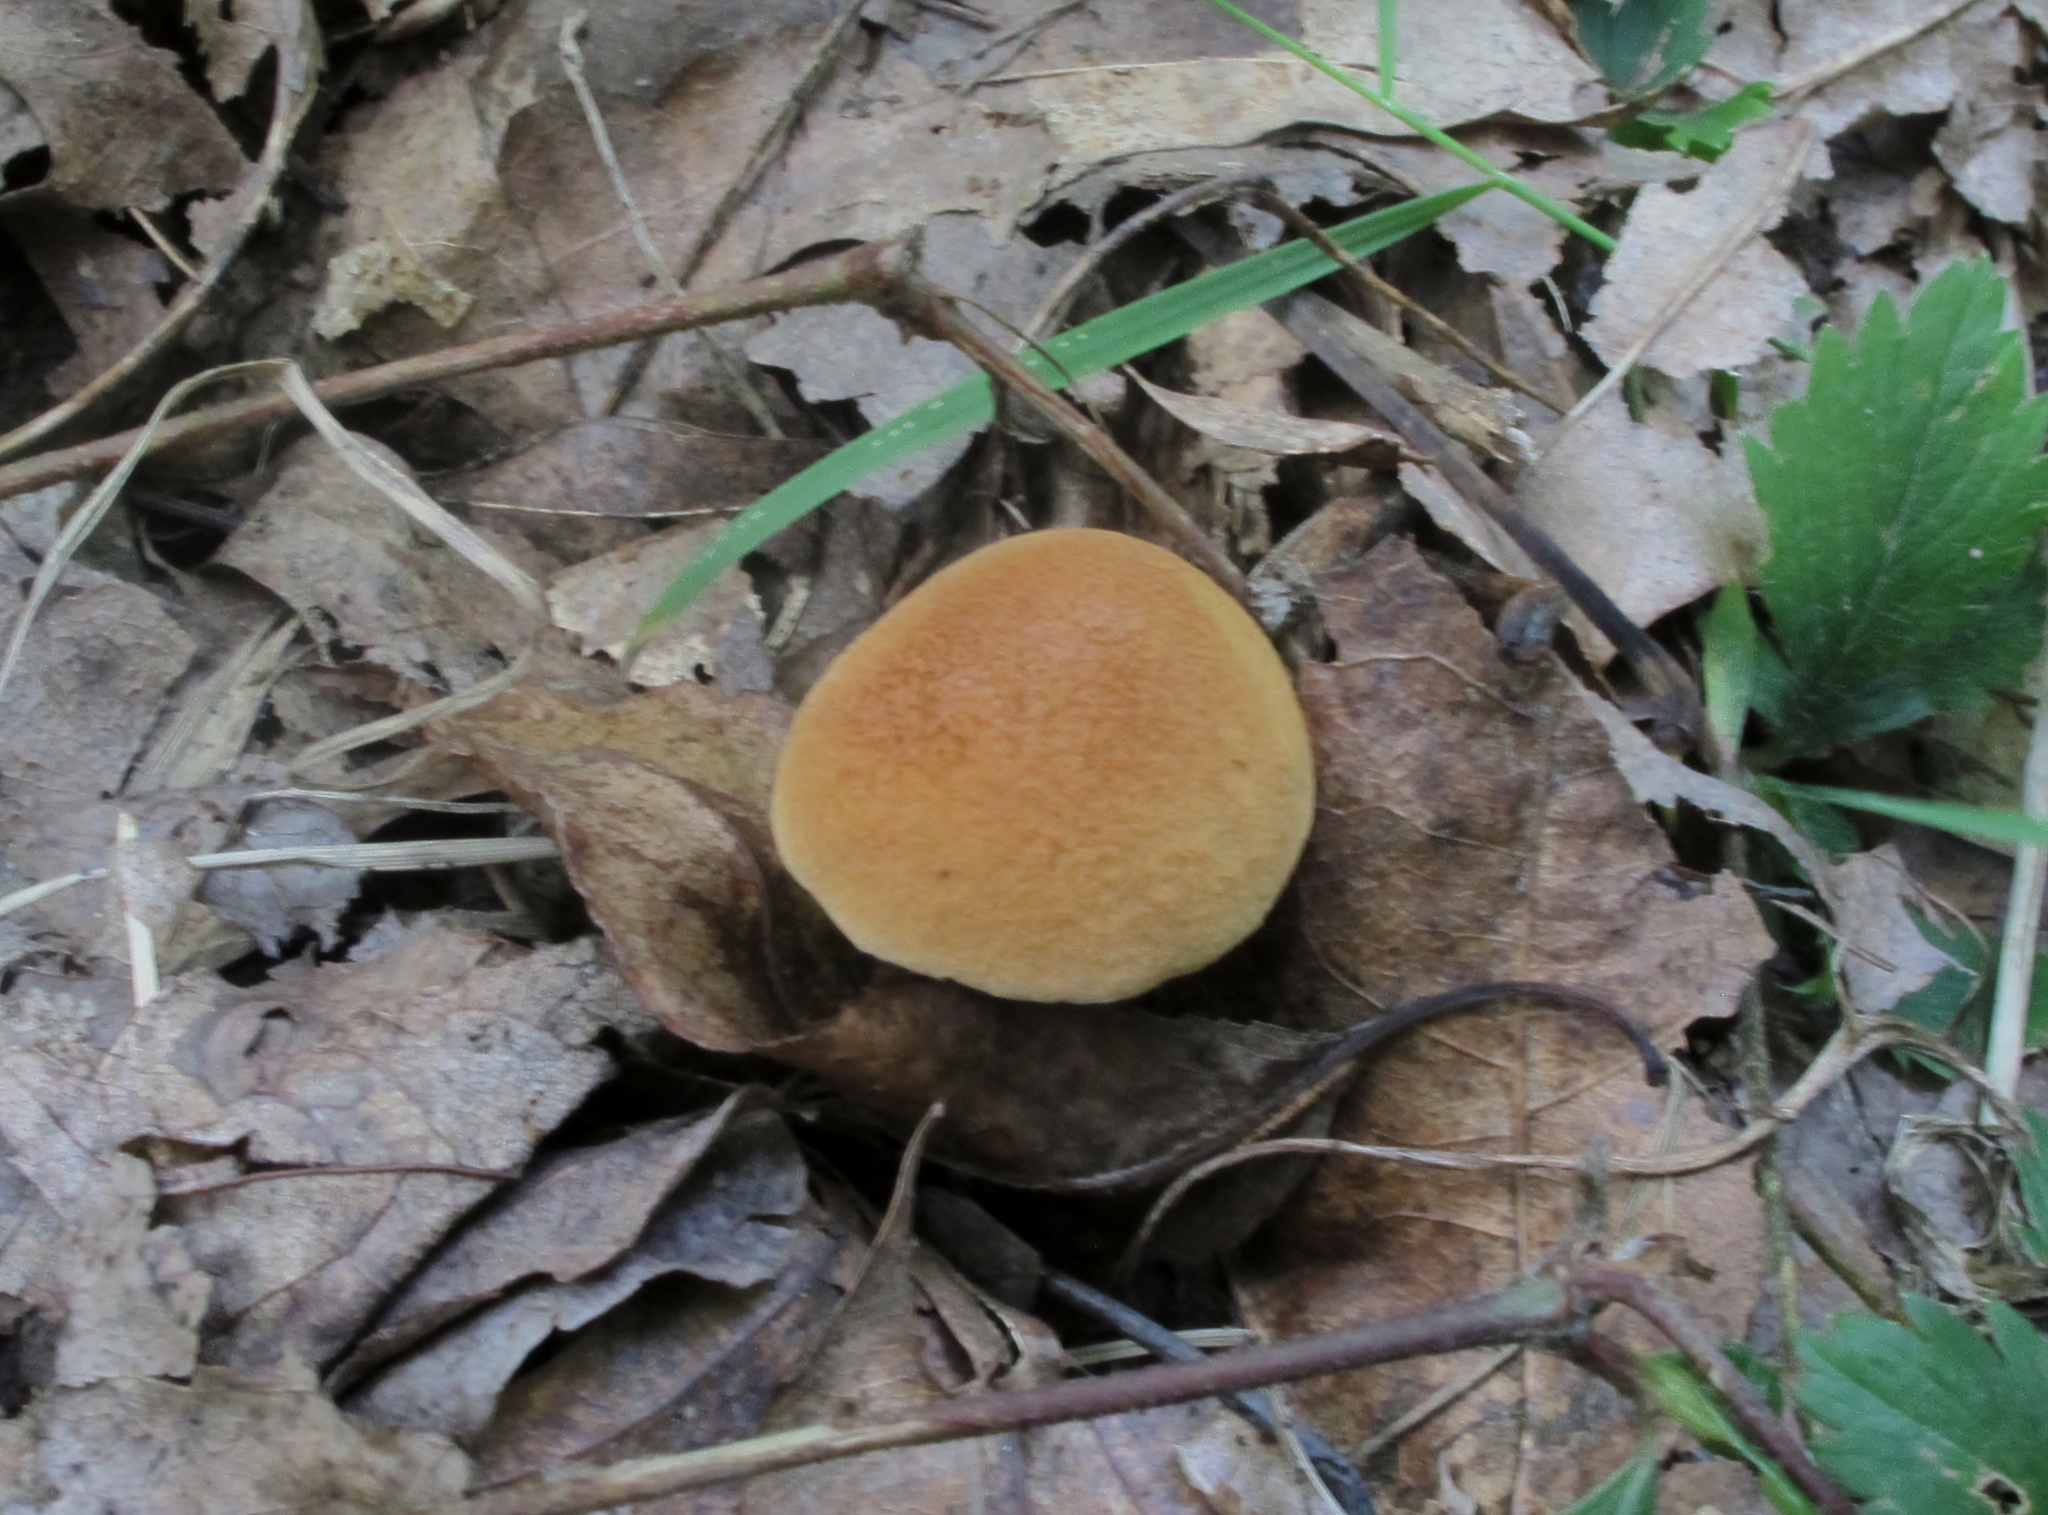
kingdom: Fungi
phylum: Basidiomycota
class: Agaricomycetes
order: Boletales
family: Boletaceae
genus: Chalciporus
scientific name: Chalciporus piperatoides
